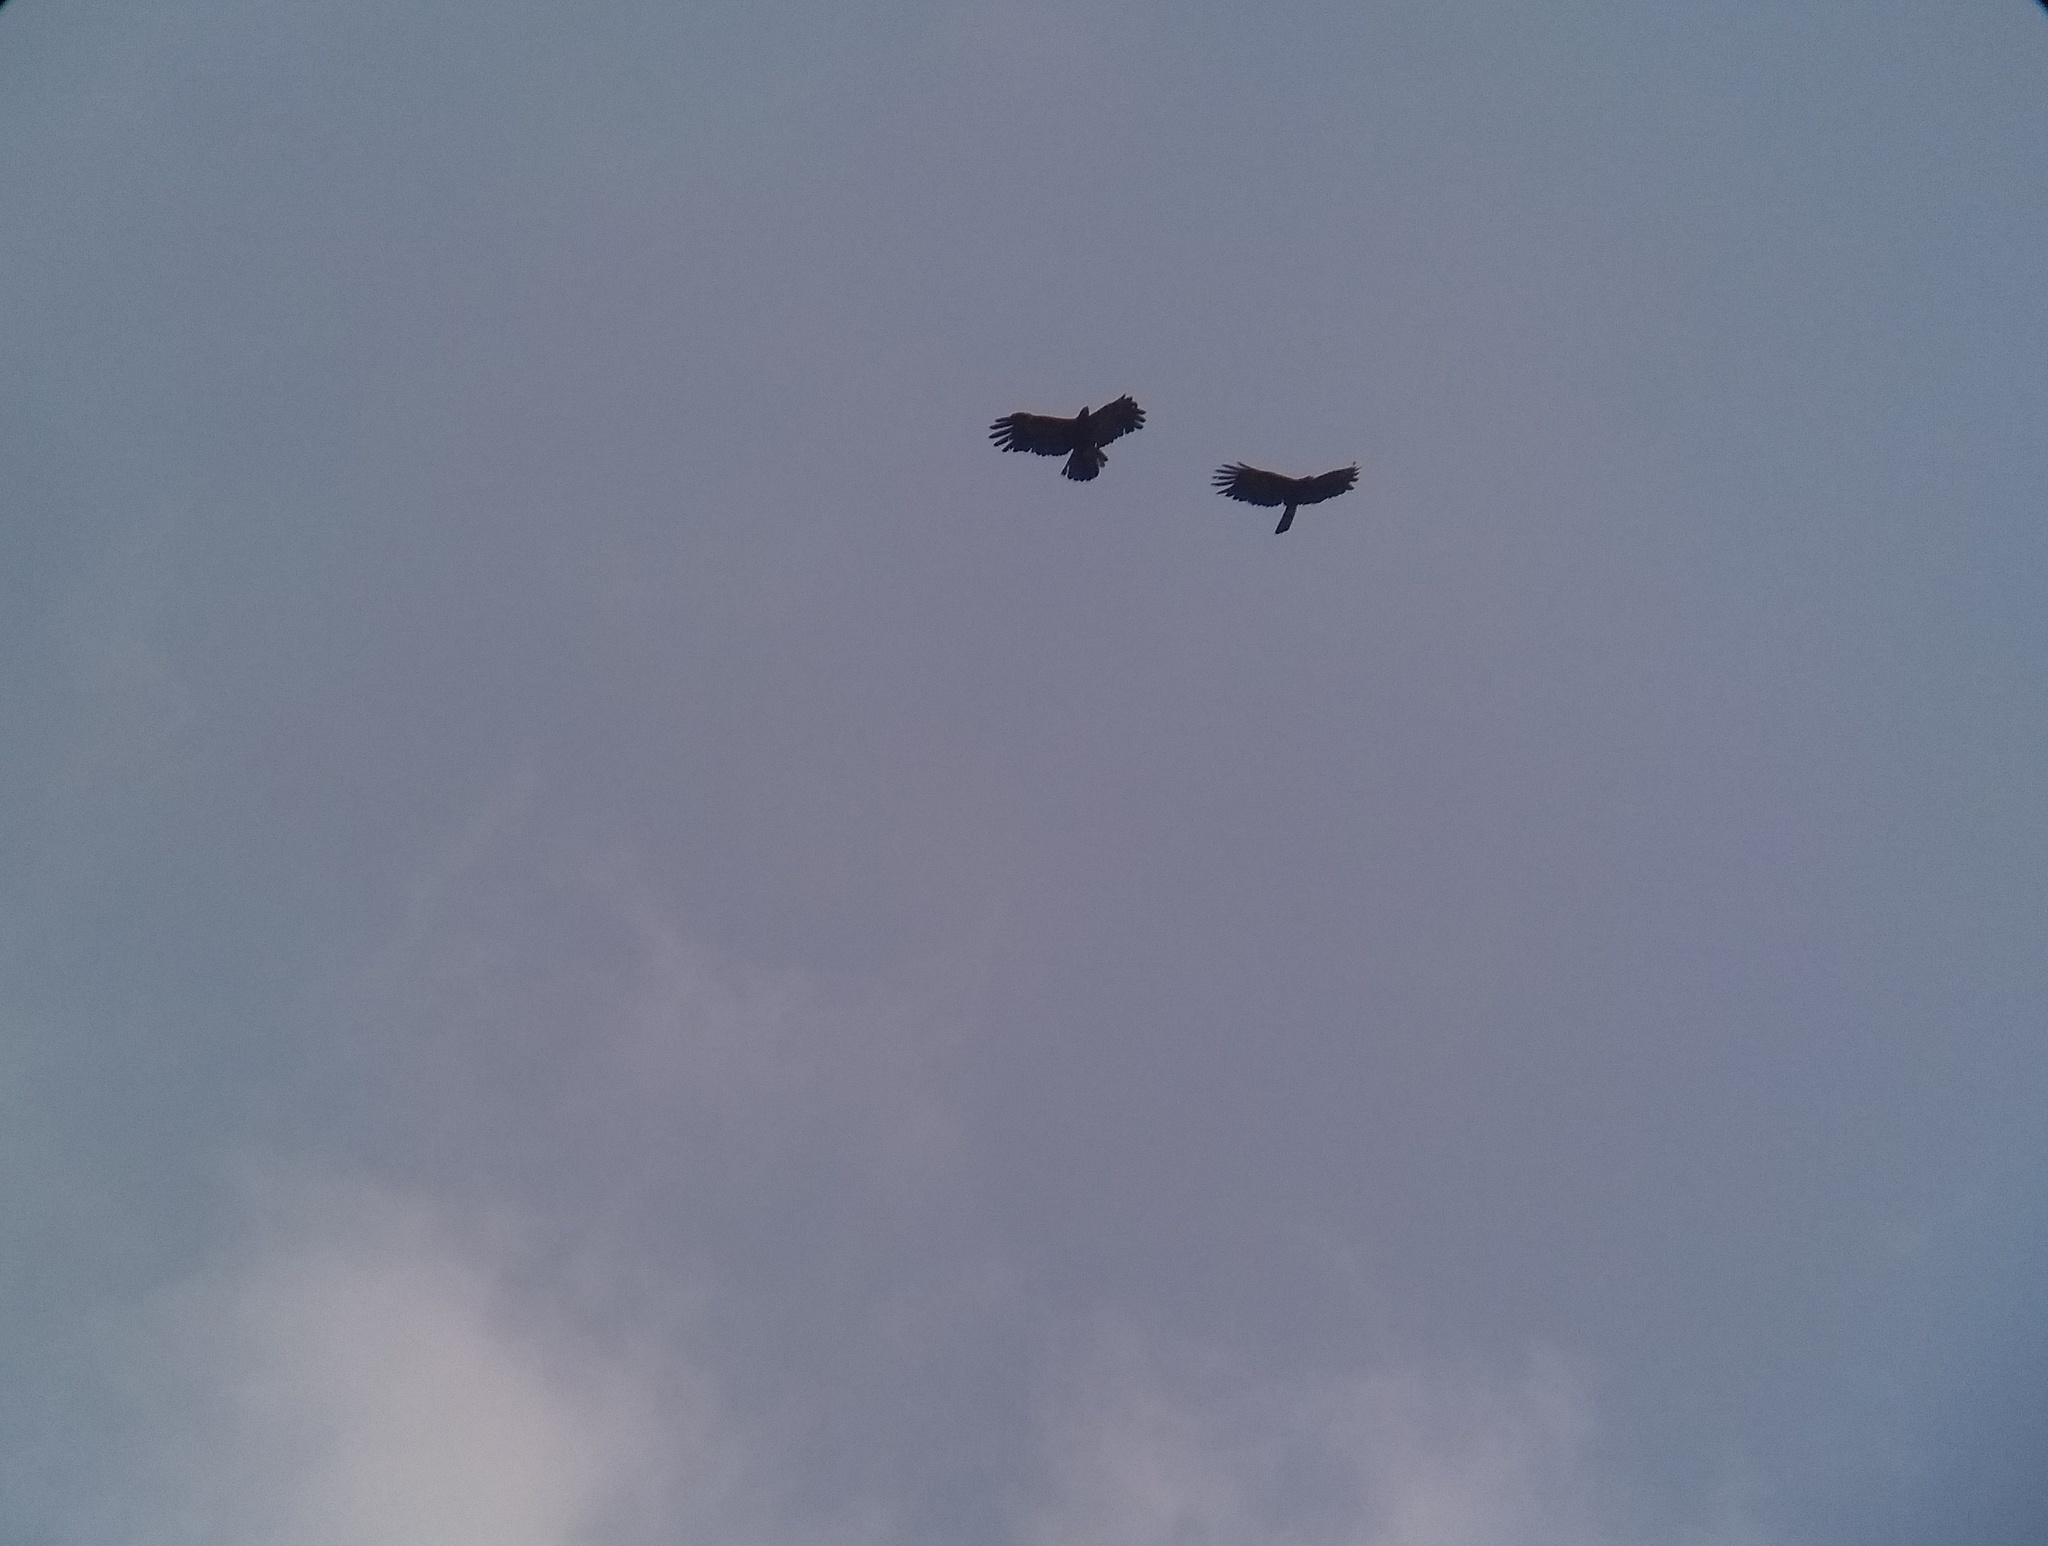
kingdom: Animalia
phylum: Chordata
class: Aves
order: Accipitriformes
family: Accipitridae
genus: Ictinaetus
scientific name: Ictinaetus malayensis
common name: Black eagle
